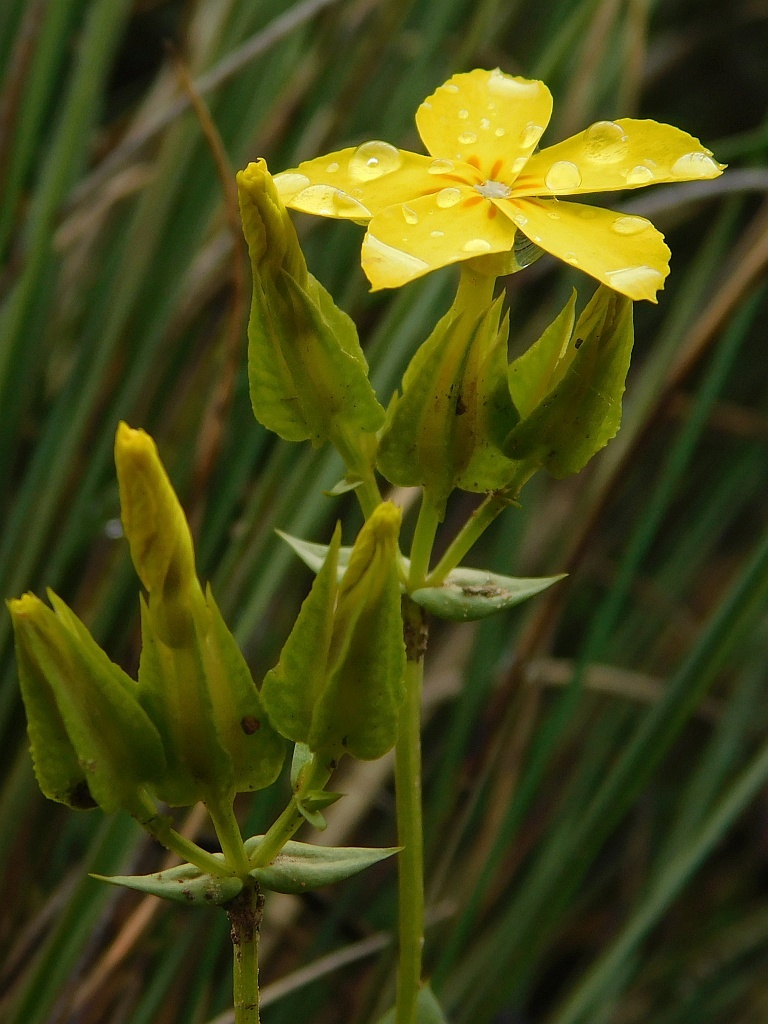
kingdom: Plantae
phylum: Tracheophyta
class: Magnoliopsida
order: Gentianales
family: Gentianaceae
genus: Sebaea
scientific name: Sebaea exacoides
